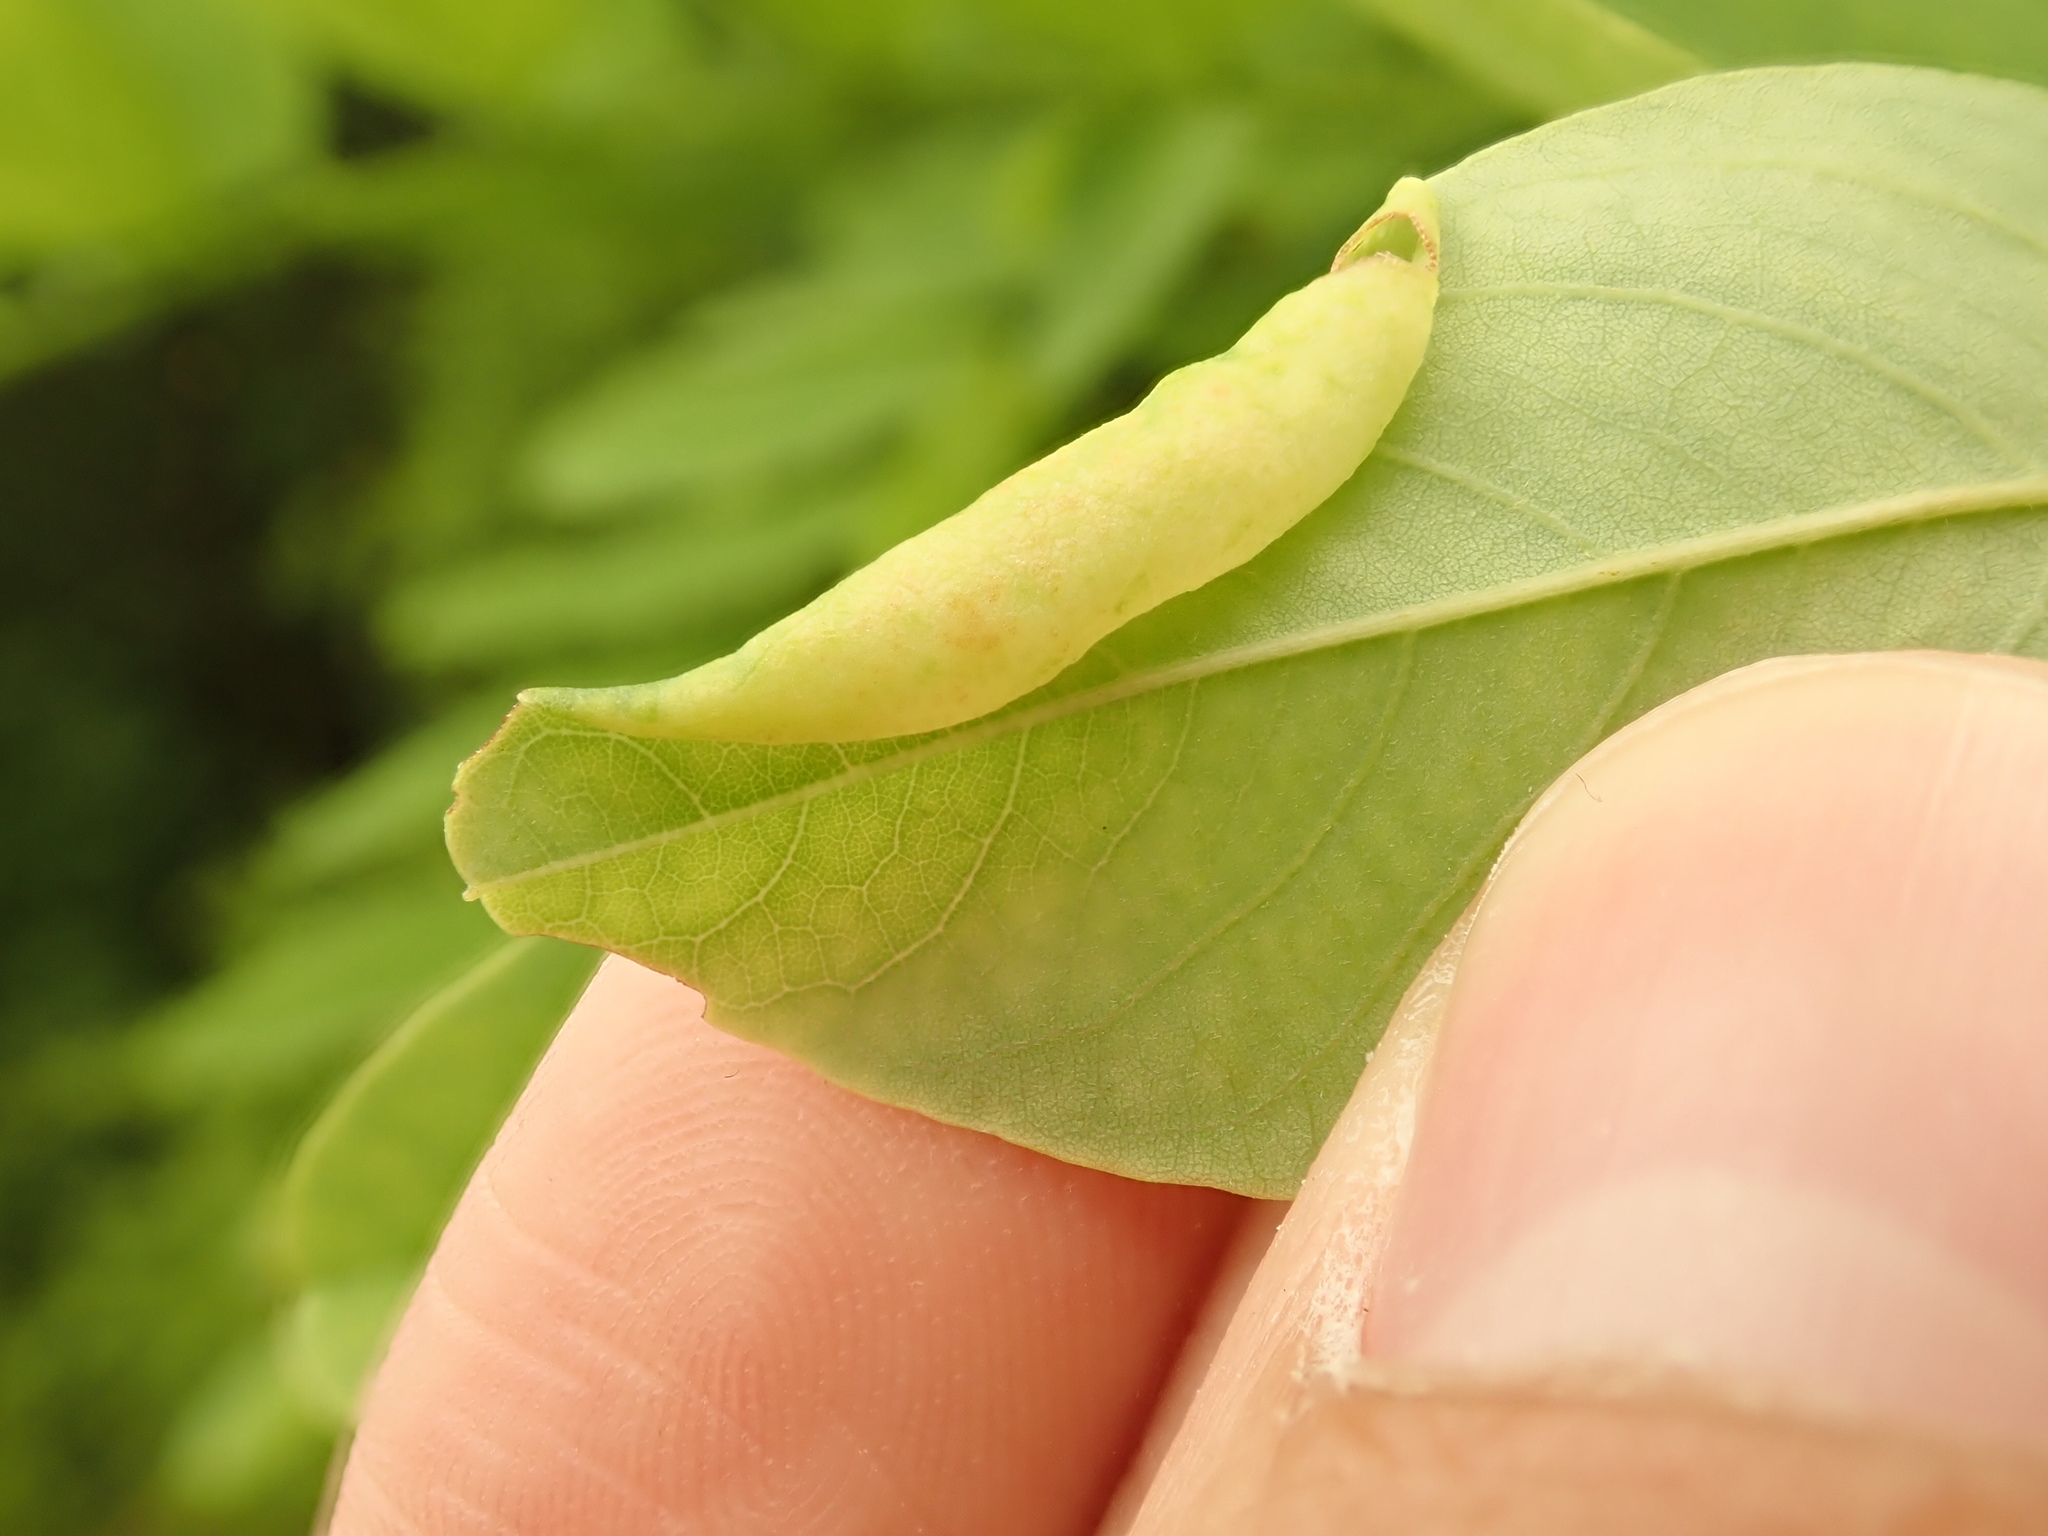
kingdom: Animalia
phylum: Arthropoda
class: Insecta
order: Diptera
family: Cecidomyiidae
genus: Obolodiplosis
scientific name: Obolodiplosis robiniae
